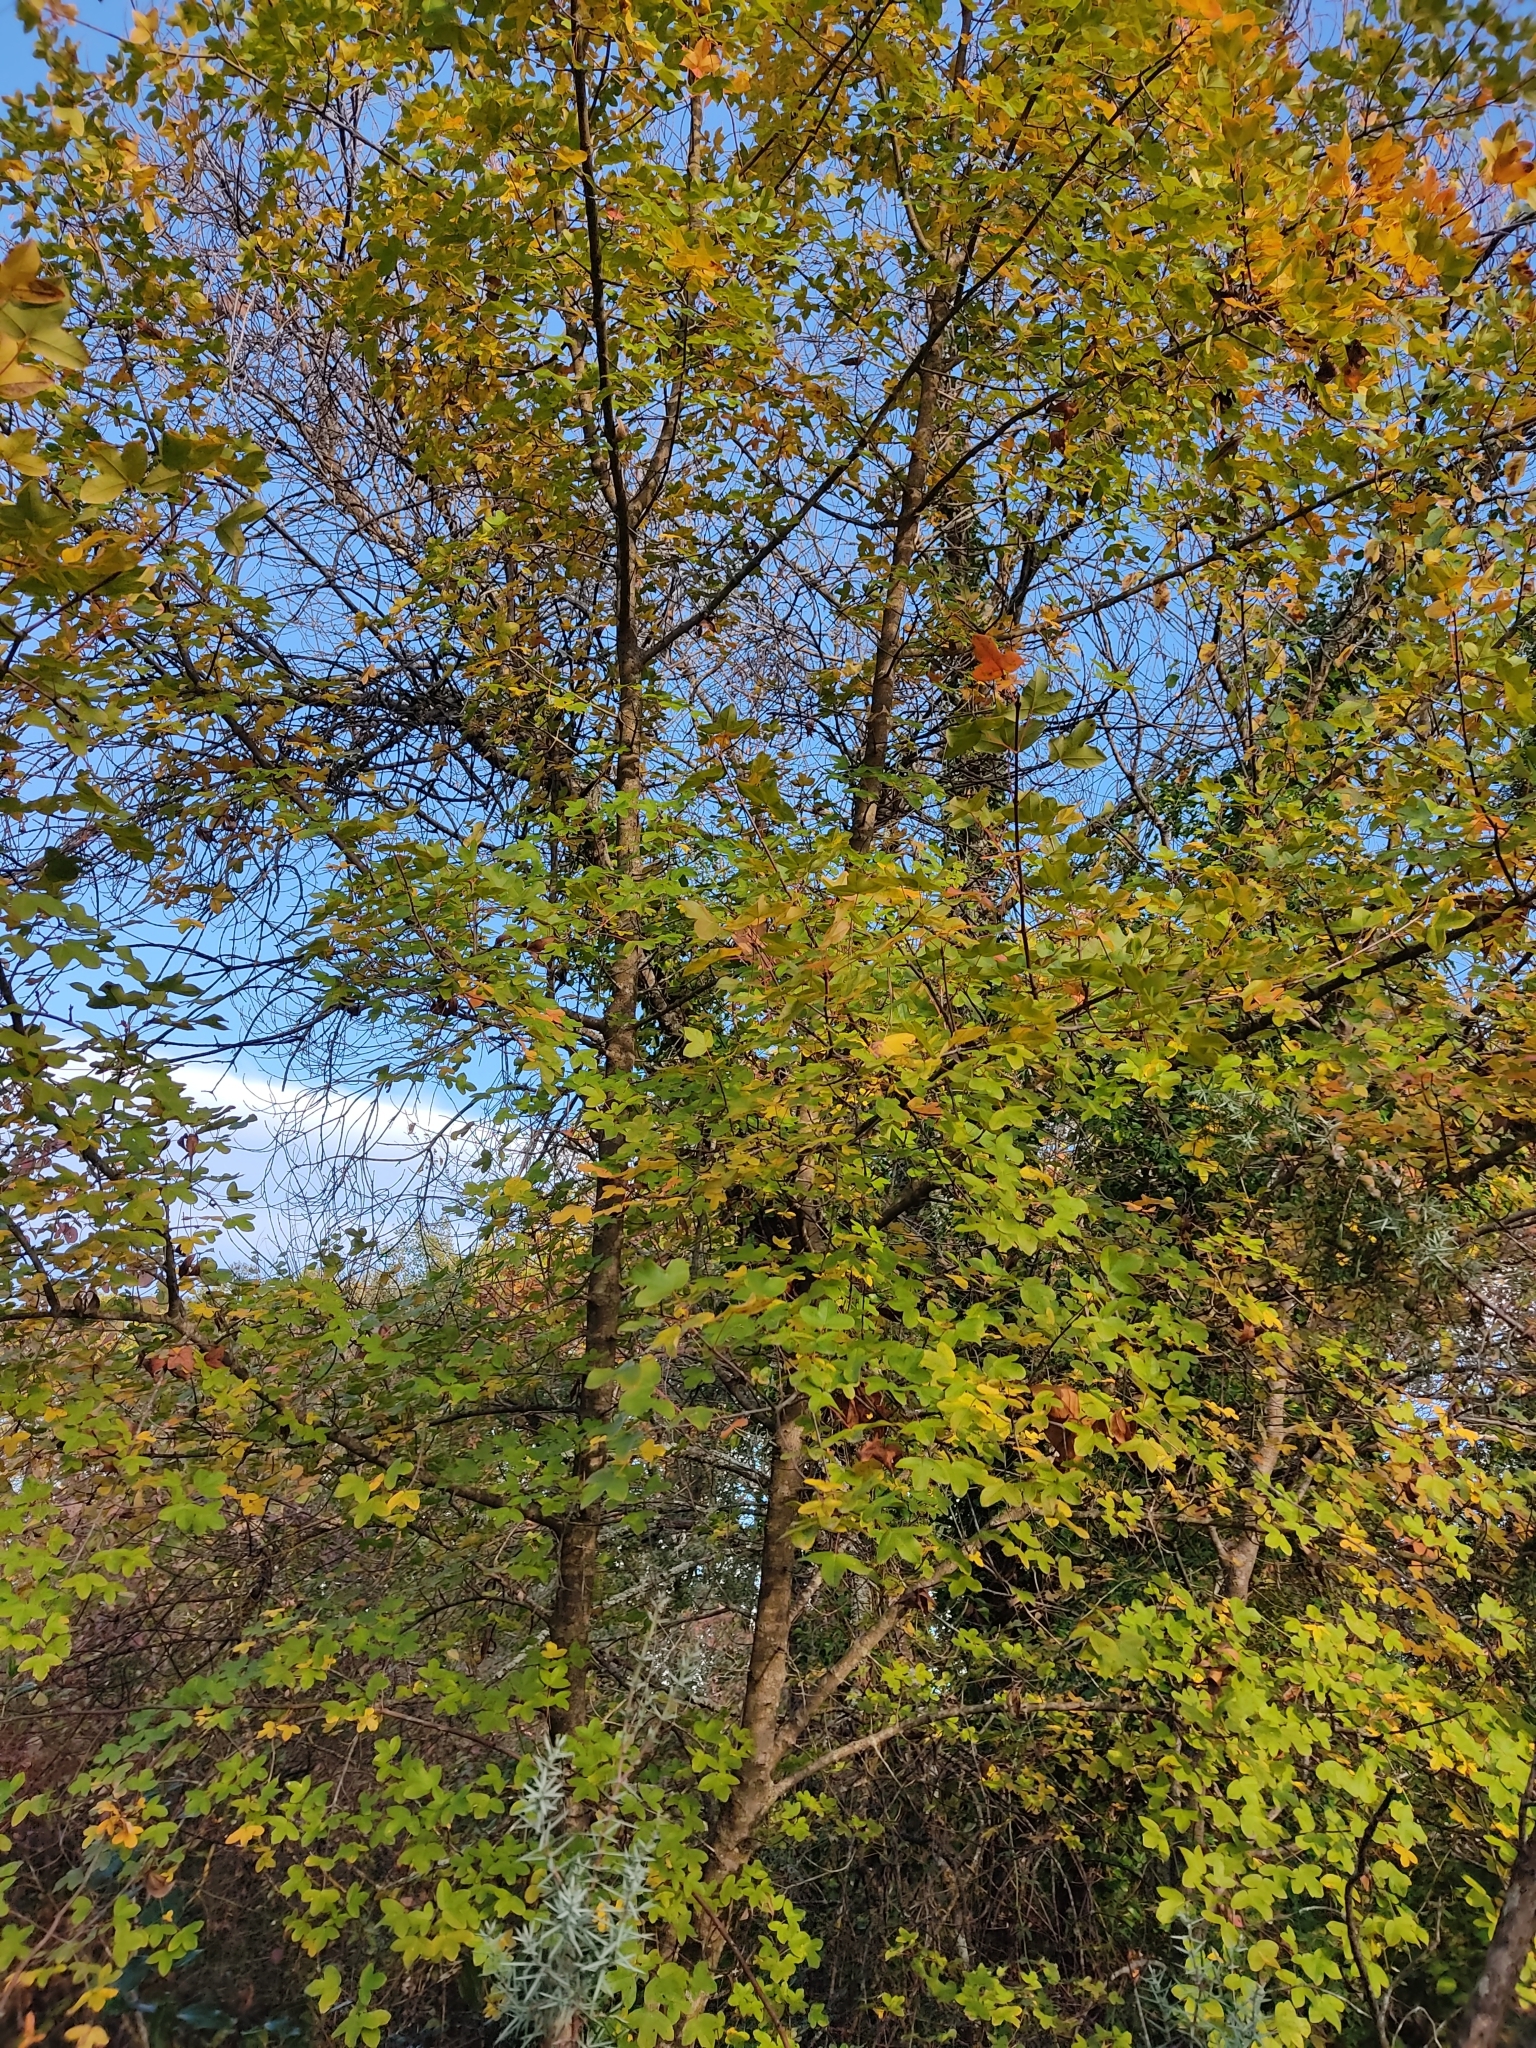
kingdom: Plantae
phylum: Tracheophyta
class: Magnoliopsida
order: Sapindales
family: Sapindaceae
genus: Acer
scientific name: Acer monspessulanum
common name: Montpellier maple
